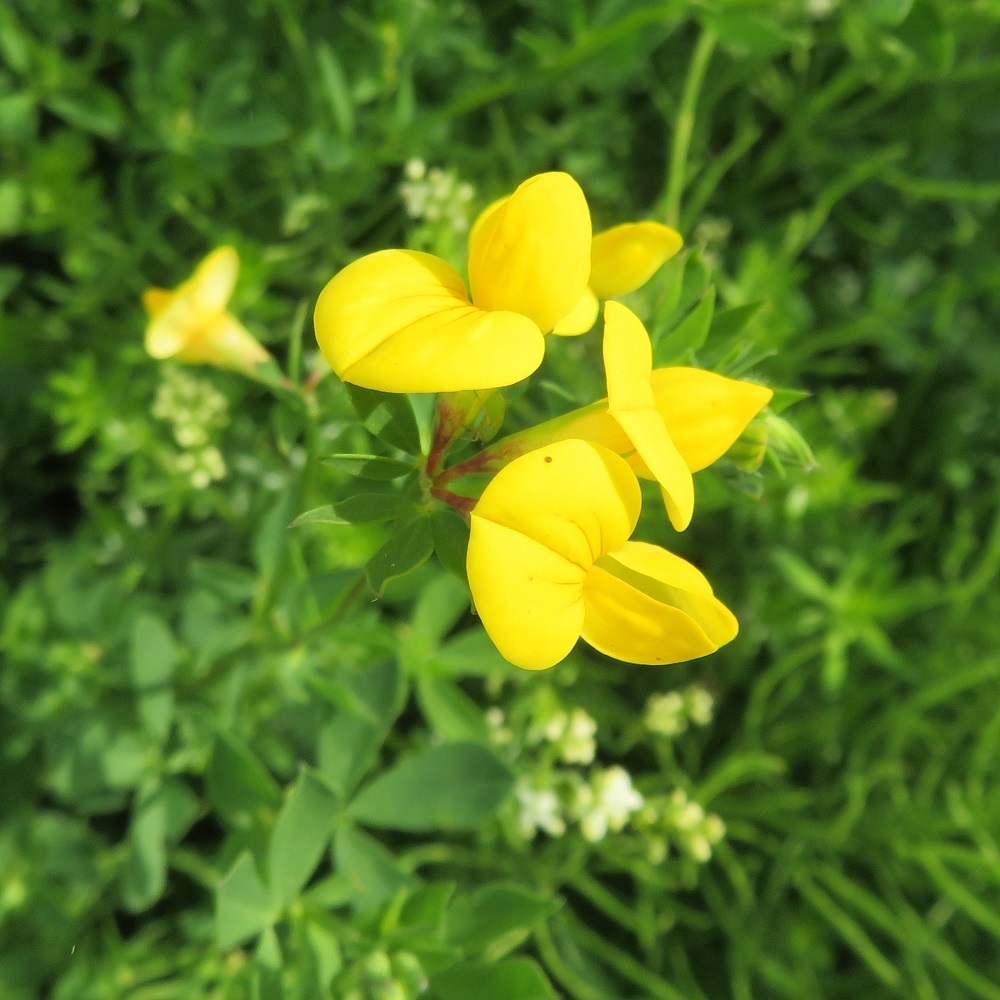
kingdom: Plantae
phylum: Tracheophyta
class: Magnoliopsida
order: Fabales
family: Fabaceae
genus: Lotus
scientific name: Lotus corniculatus
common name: Common bird's-foot-trefoil
